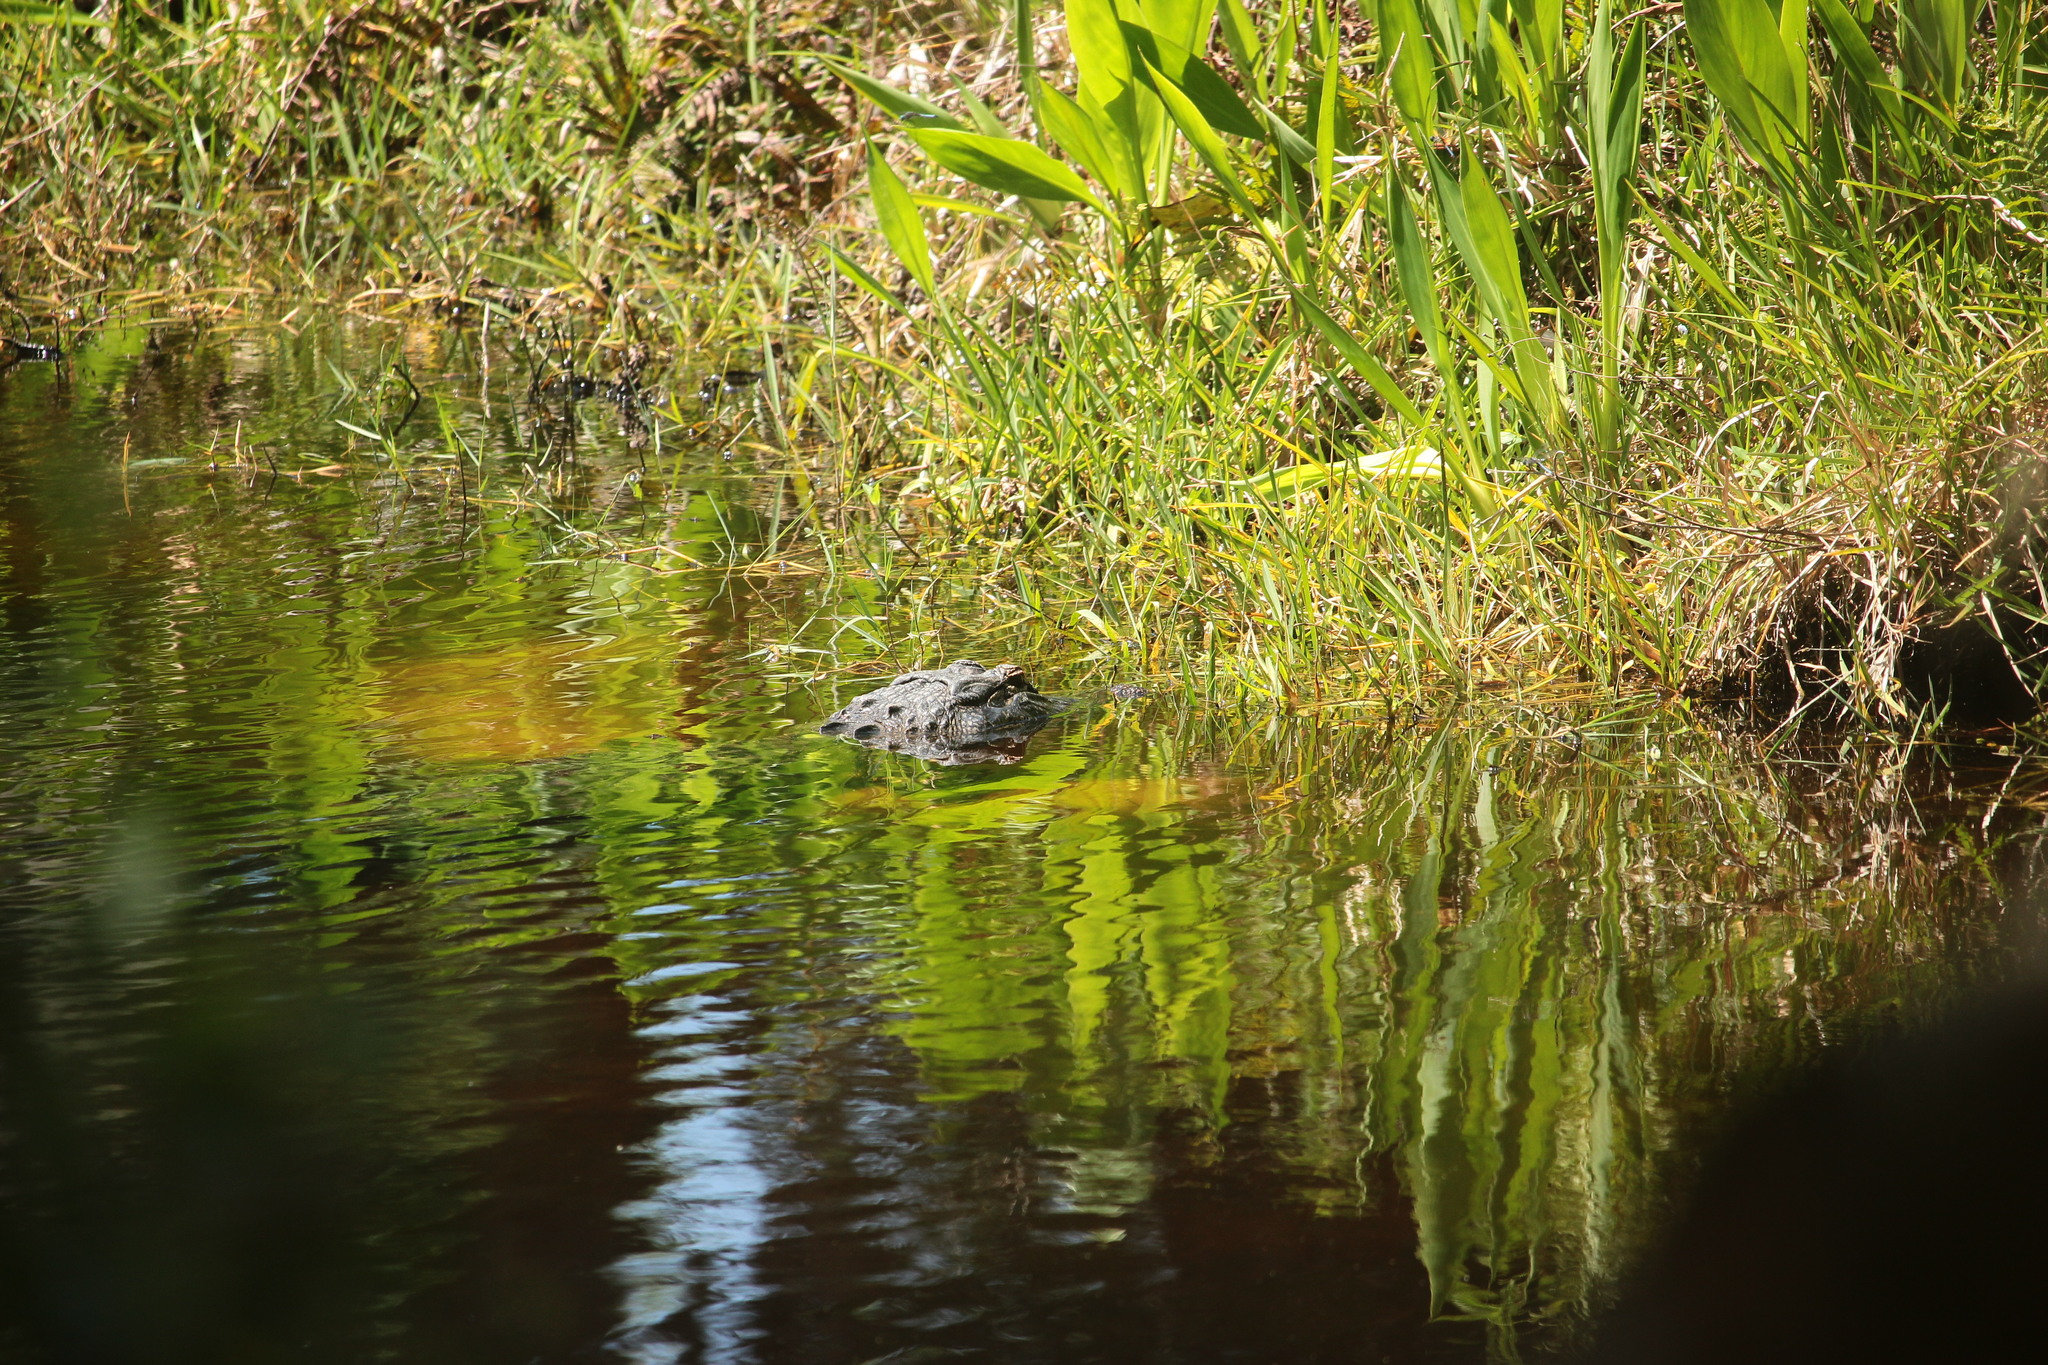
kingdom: Animalia
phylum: Chordata
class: Crocodylia
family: Alligatoridae
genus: Alligator
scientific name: Alligator mississippiensis
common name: American alligator
